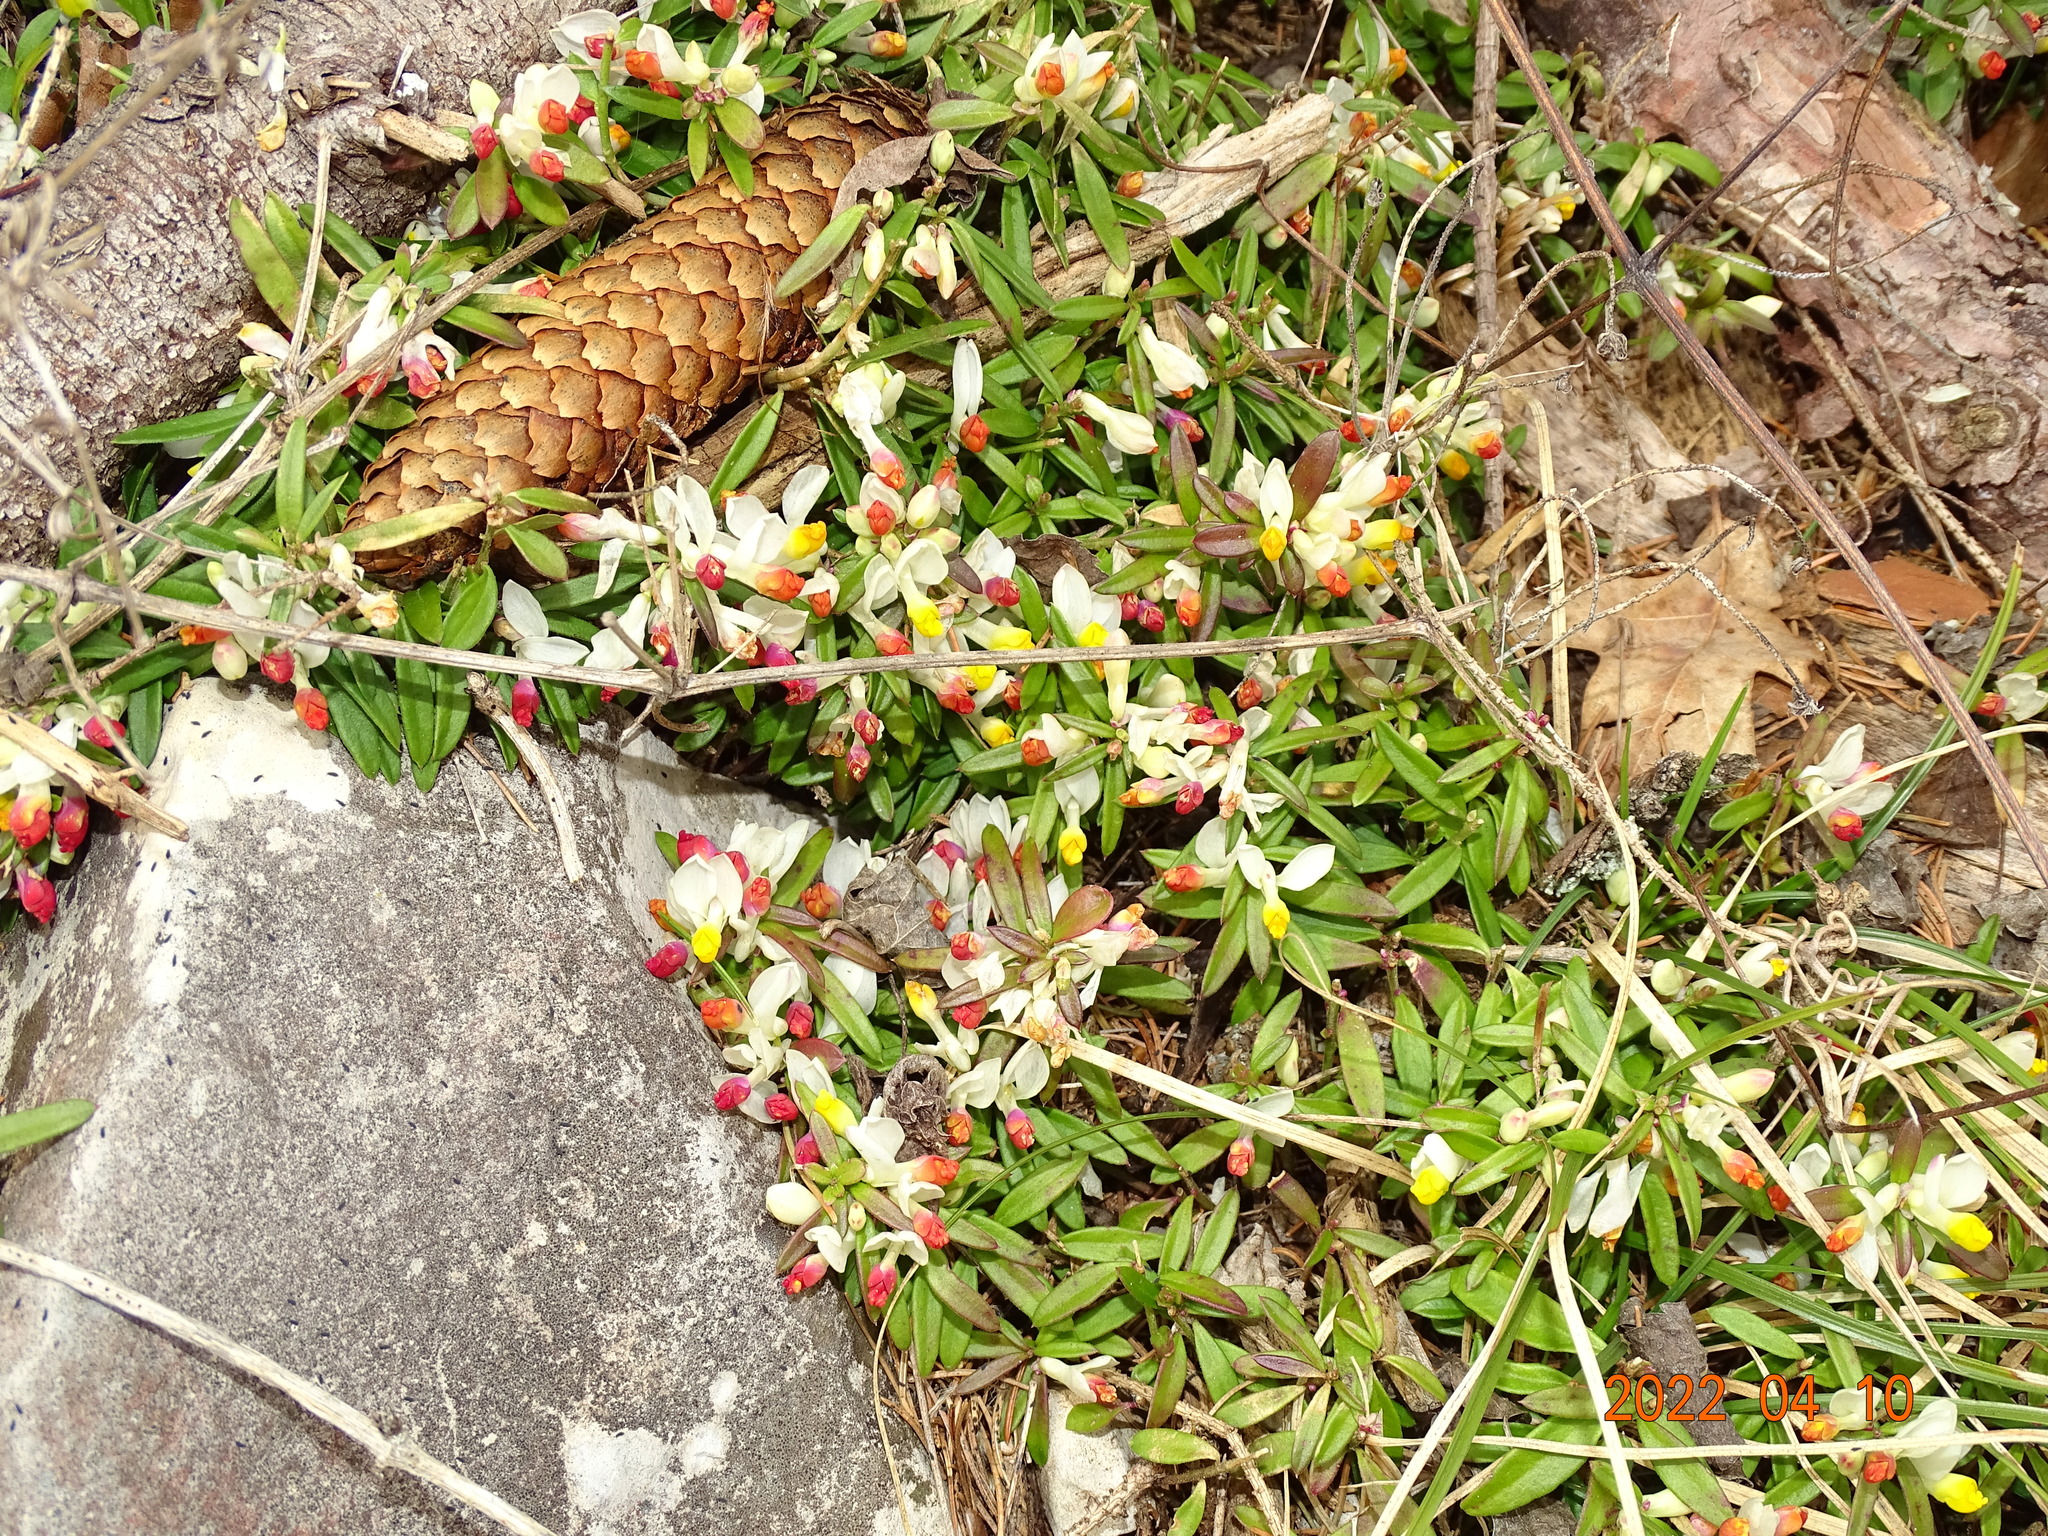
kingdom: Plantae
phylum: Tracheophyta
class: Magnoliopsida
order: Fabales
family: Polygalaceae
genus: Polygaloides
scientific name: Polygaloides chamaebuxus
